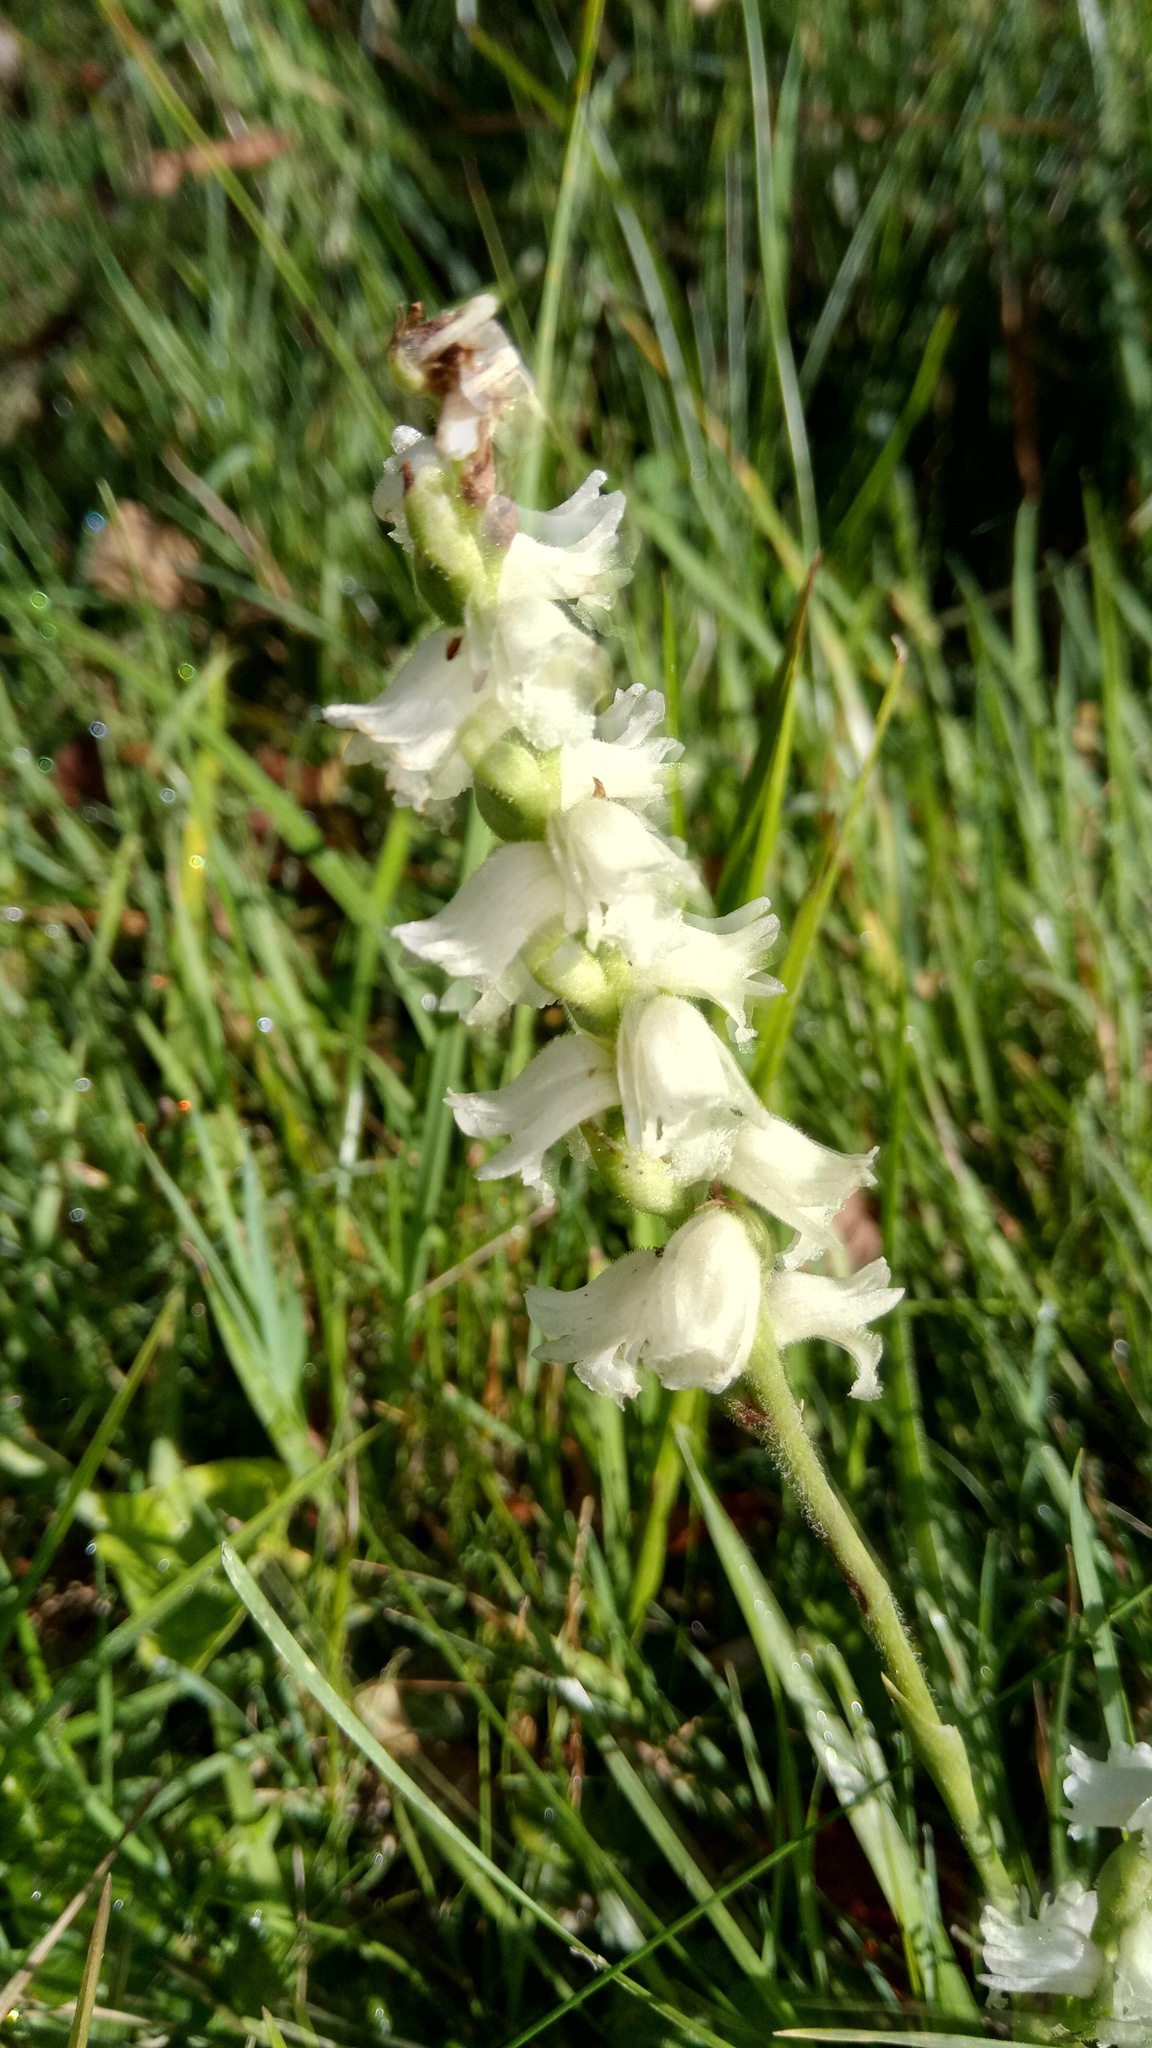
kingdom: Plantae
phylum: Tracheophyta
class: Liliopsida
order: Asparagales
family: Orchidaceae
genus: Spiranthes
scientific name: Spiranthes arcisepala
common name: Appalachian ladies'-tresses
